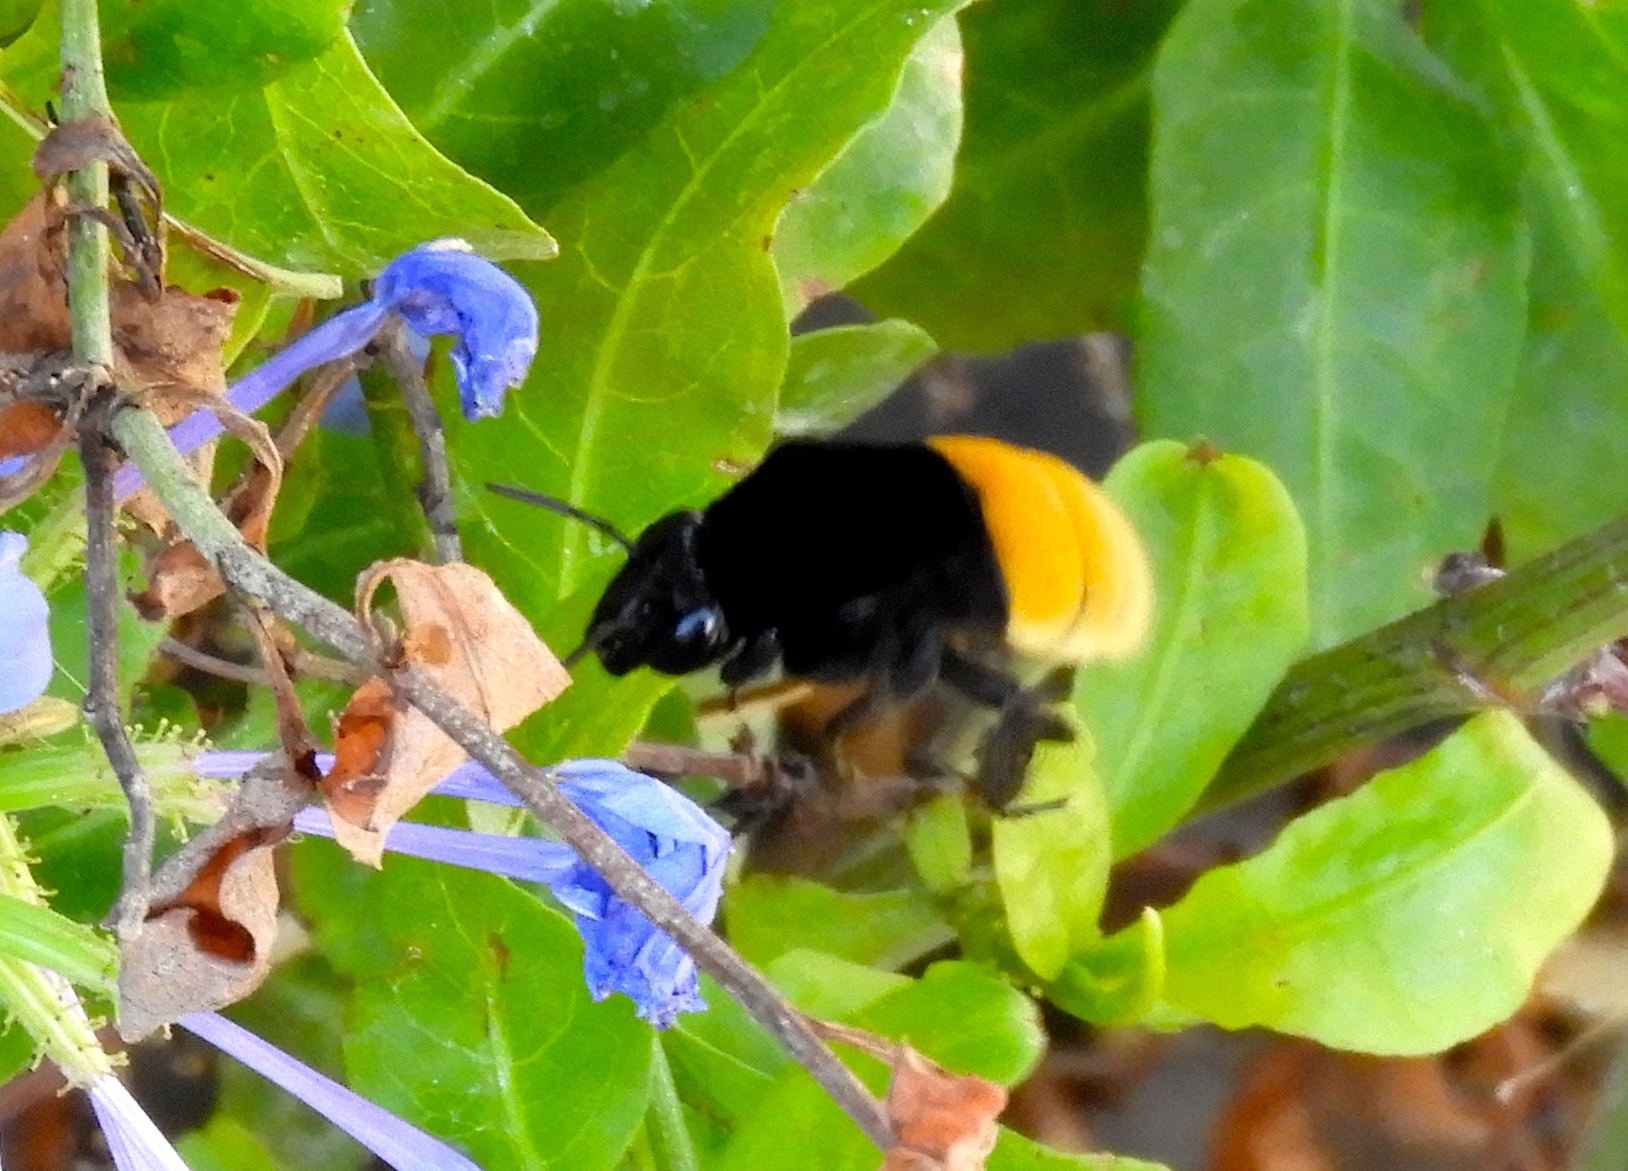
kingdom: Animalia
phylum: Arthropoda
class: Insecta
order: Hymenoptera
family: Apidae
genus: Eulaema
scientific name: Eulaema polychroma
